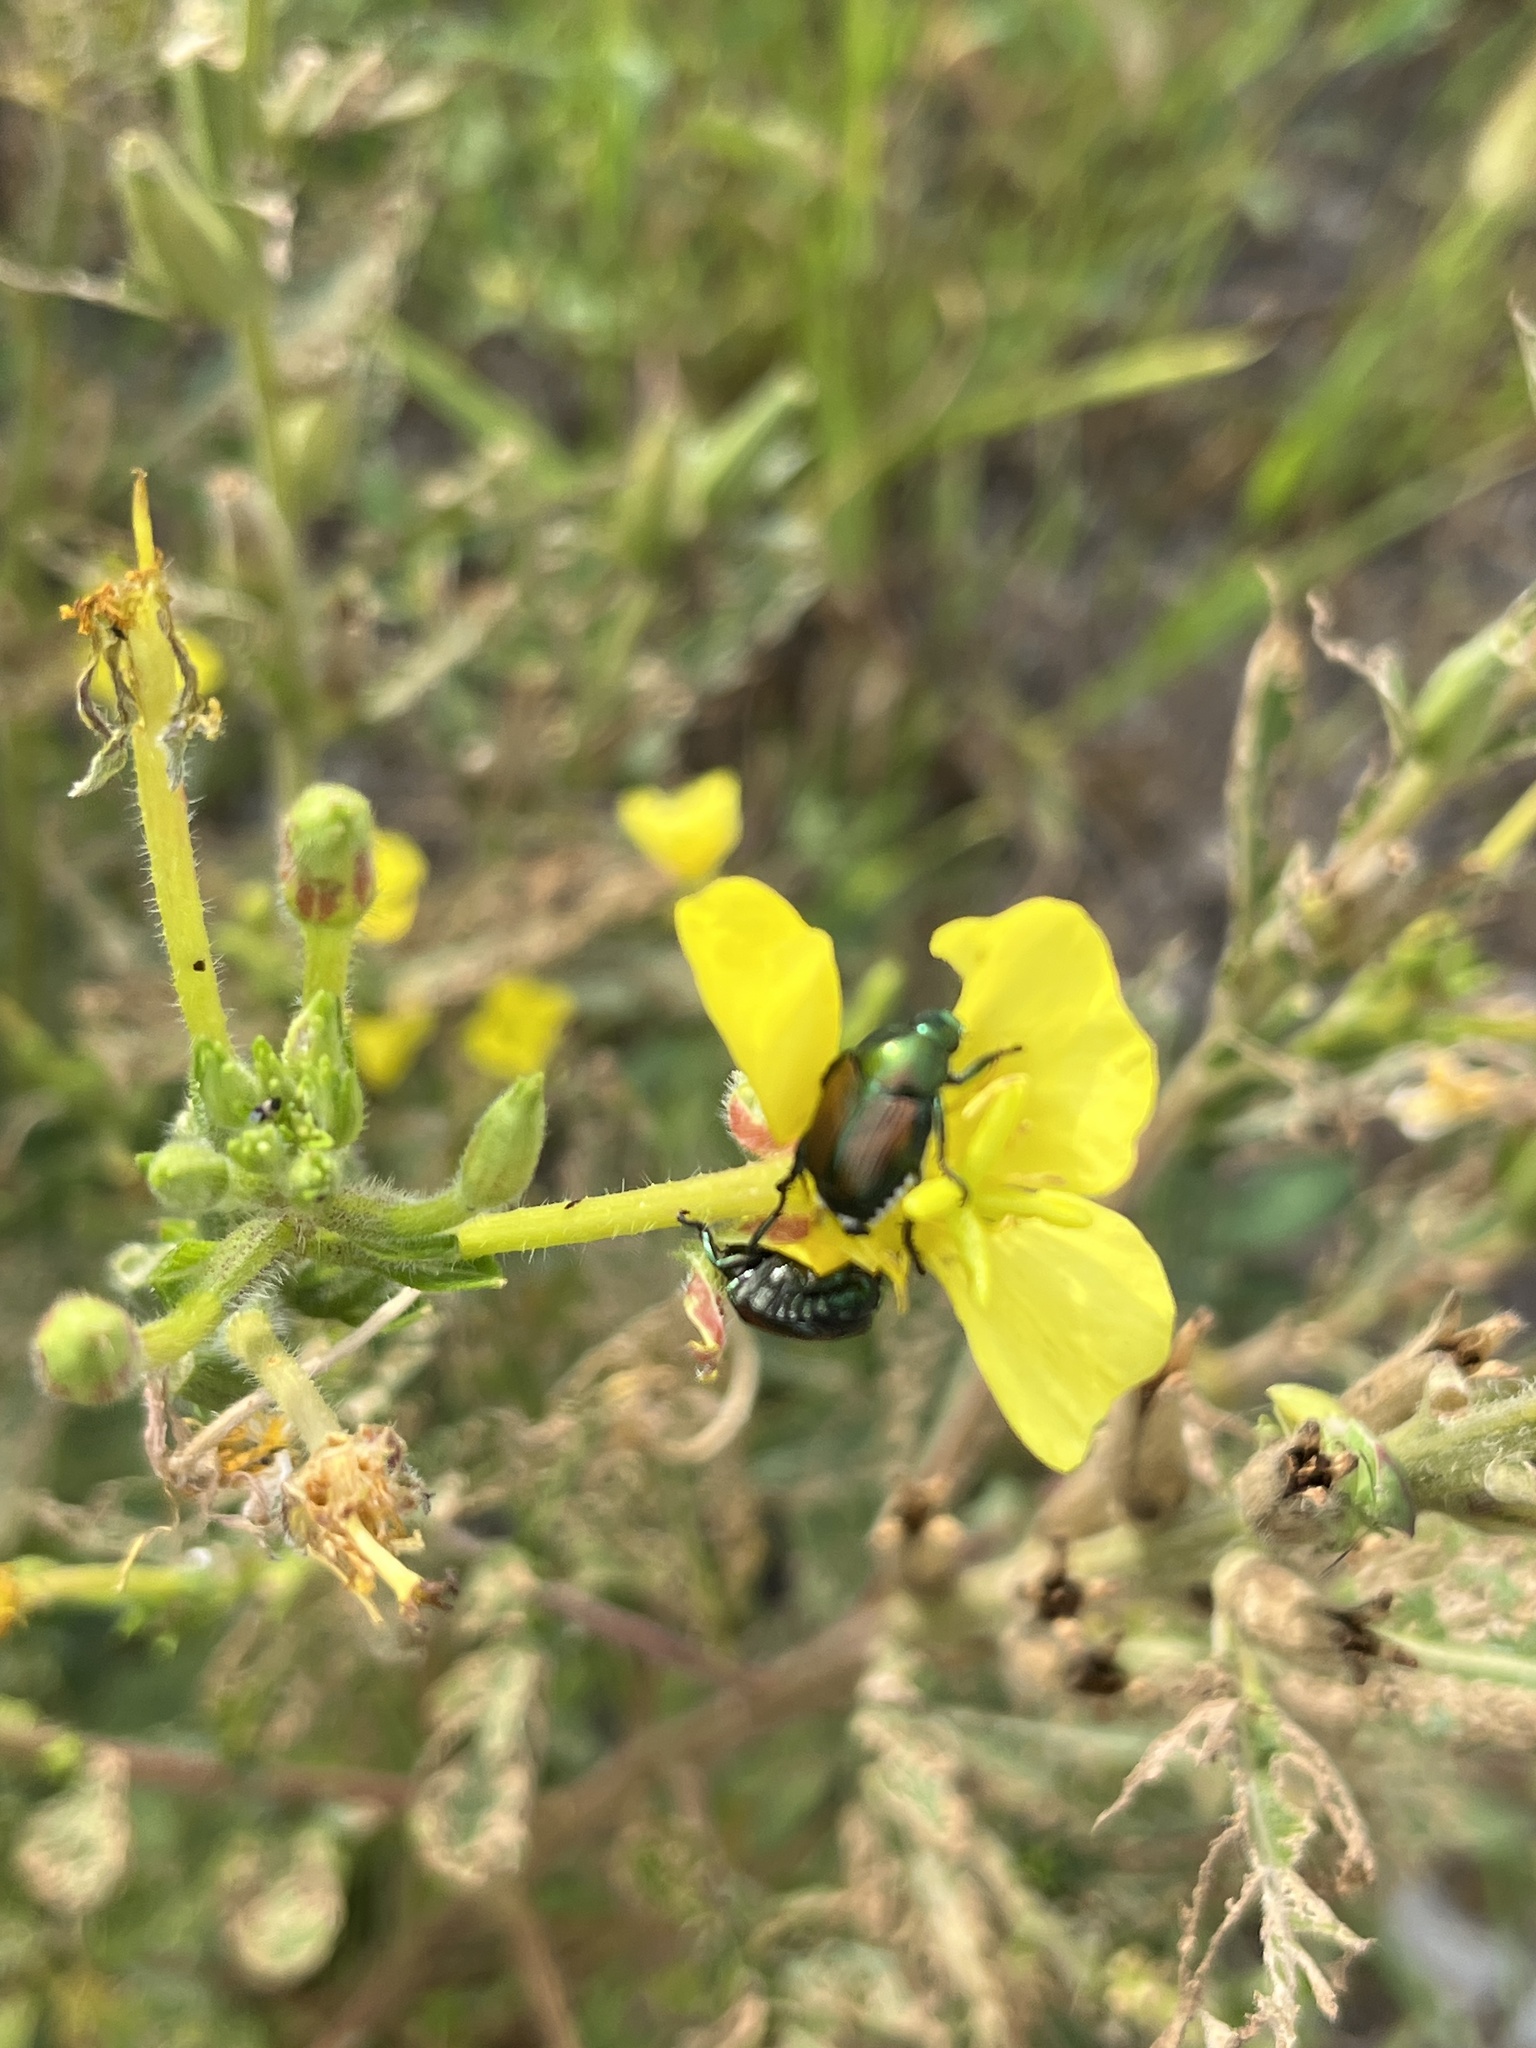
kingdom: Animalia
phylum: Arthropoda
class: Insecta
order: Coleoptera
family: Scarabaeidae
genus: Popillia
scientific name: Popillia japonica
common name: Japanese beetle
